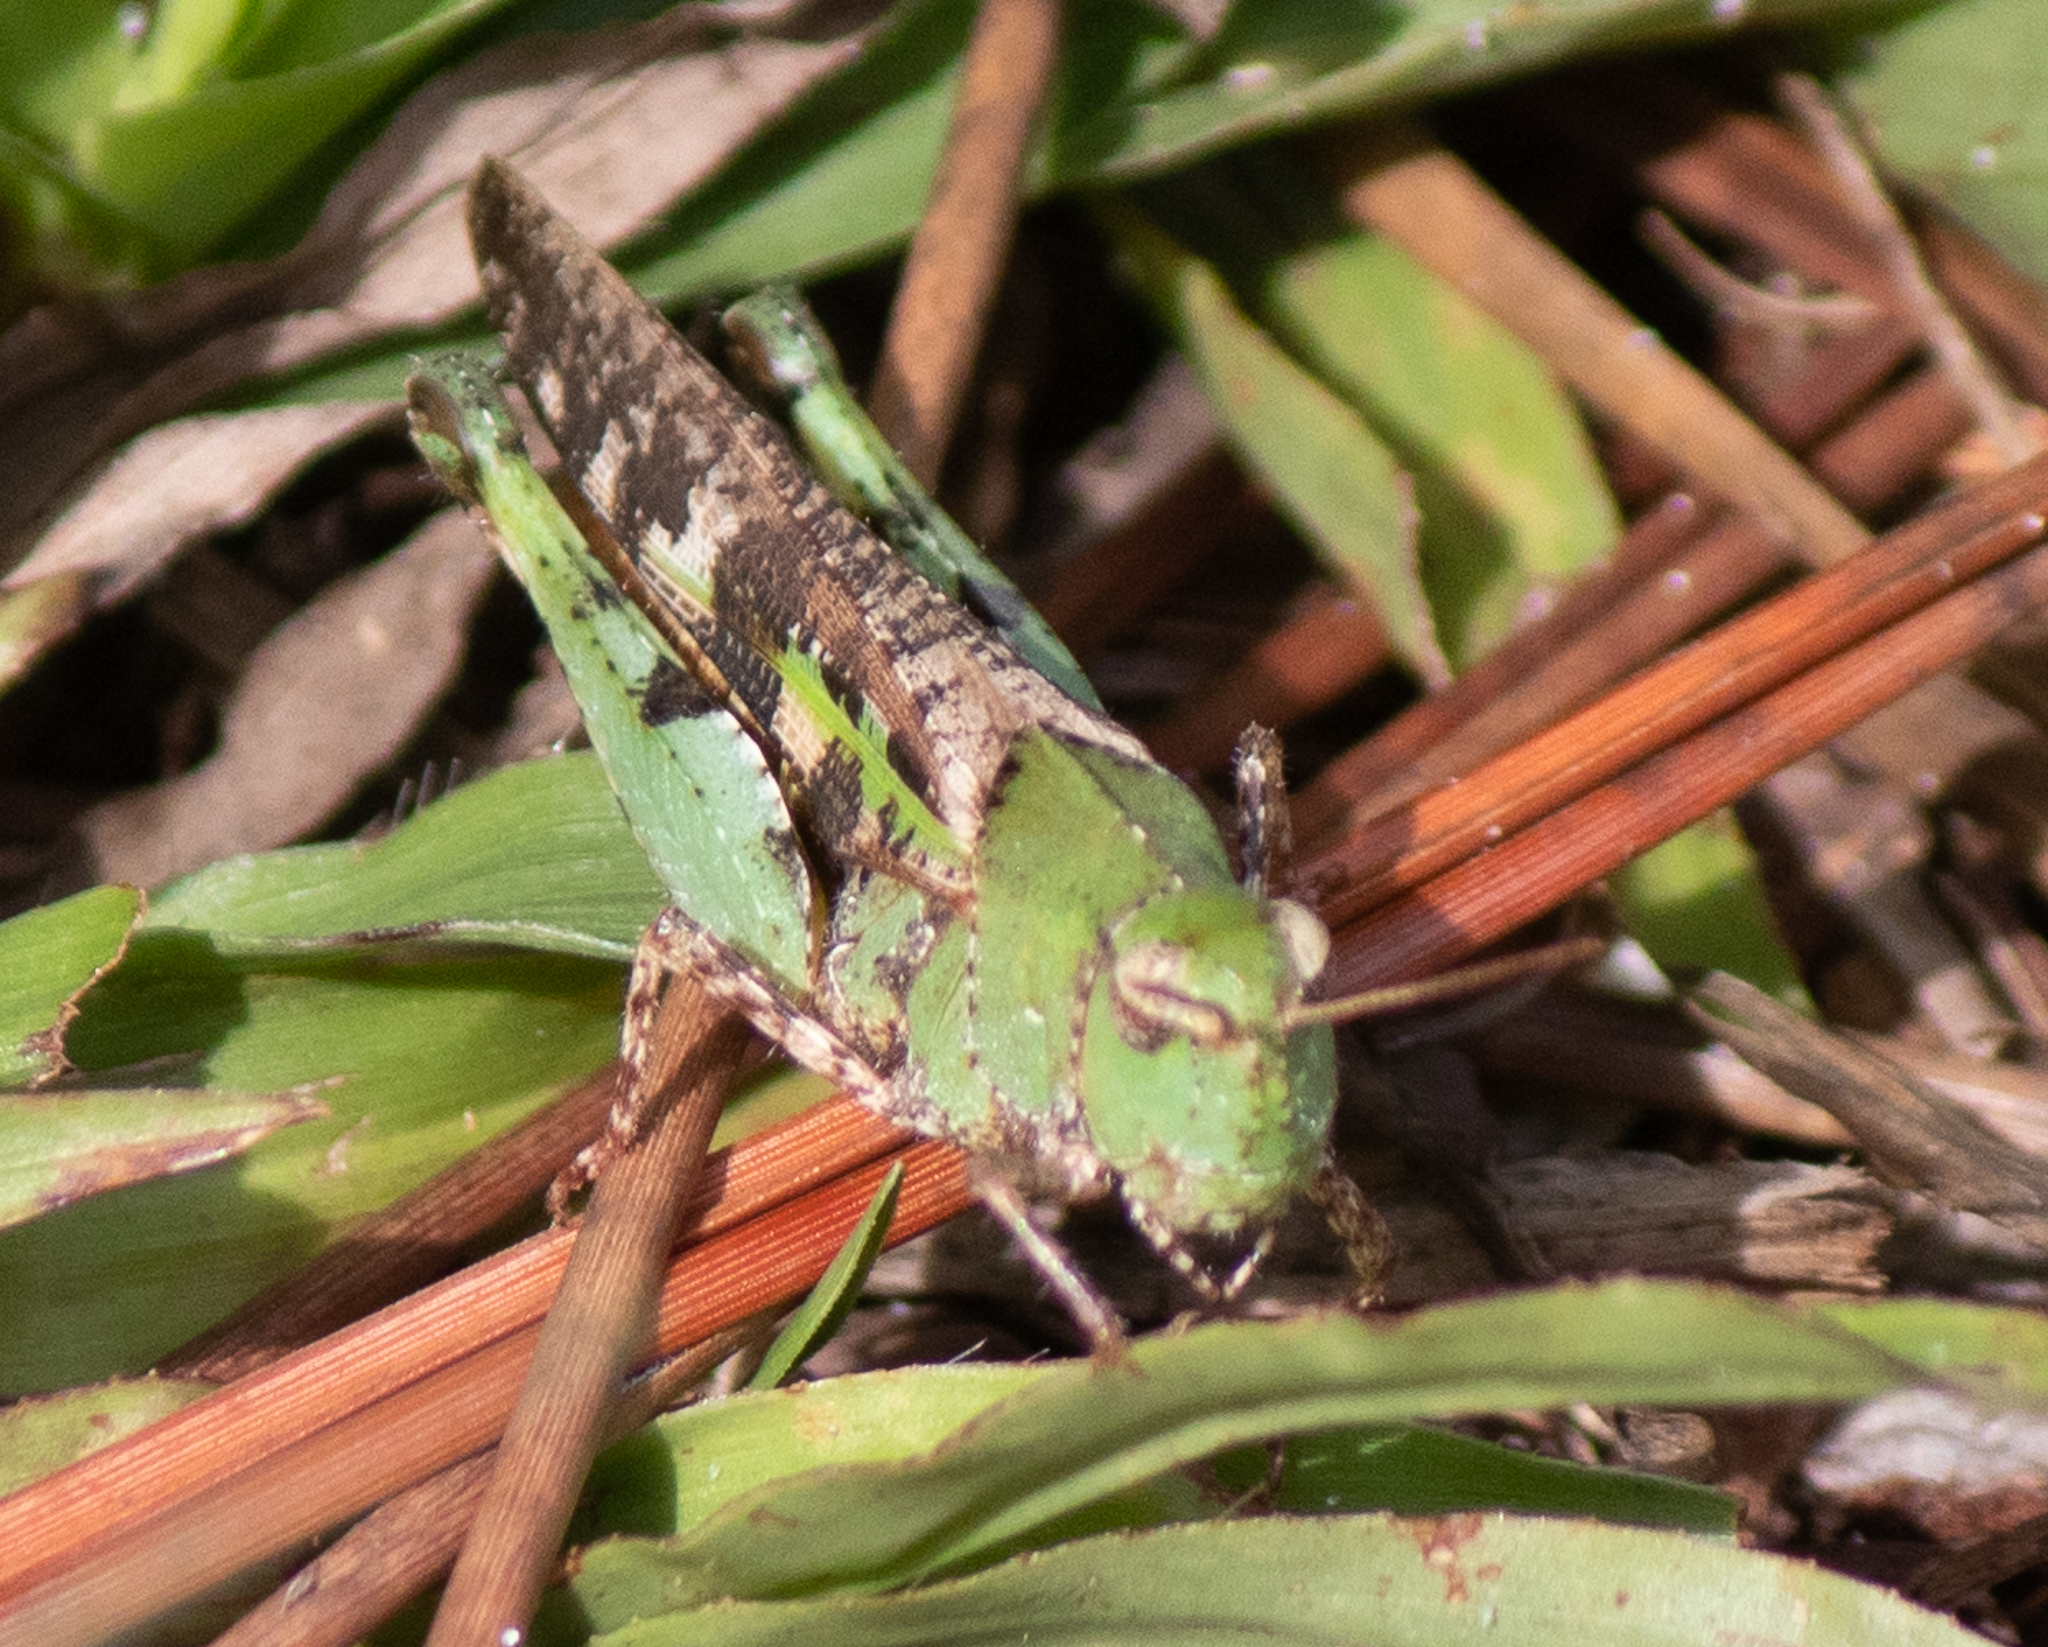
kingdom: Animalia
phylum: Arthropoda
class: Insecta
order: Orthoptera
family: Acrididae
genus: Chortophaga
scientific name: Chortophaga australior
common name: Southern green-striped grasshopper
